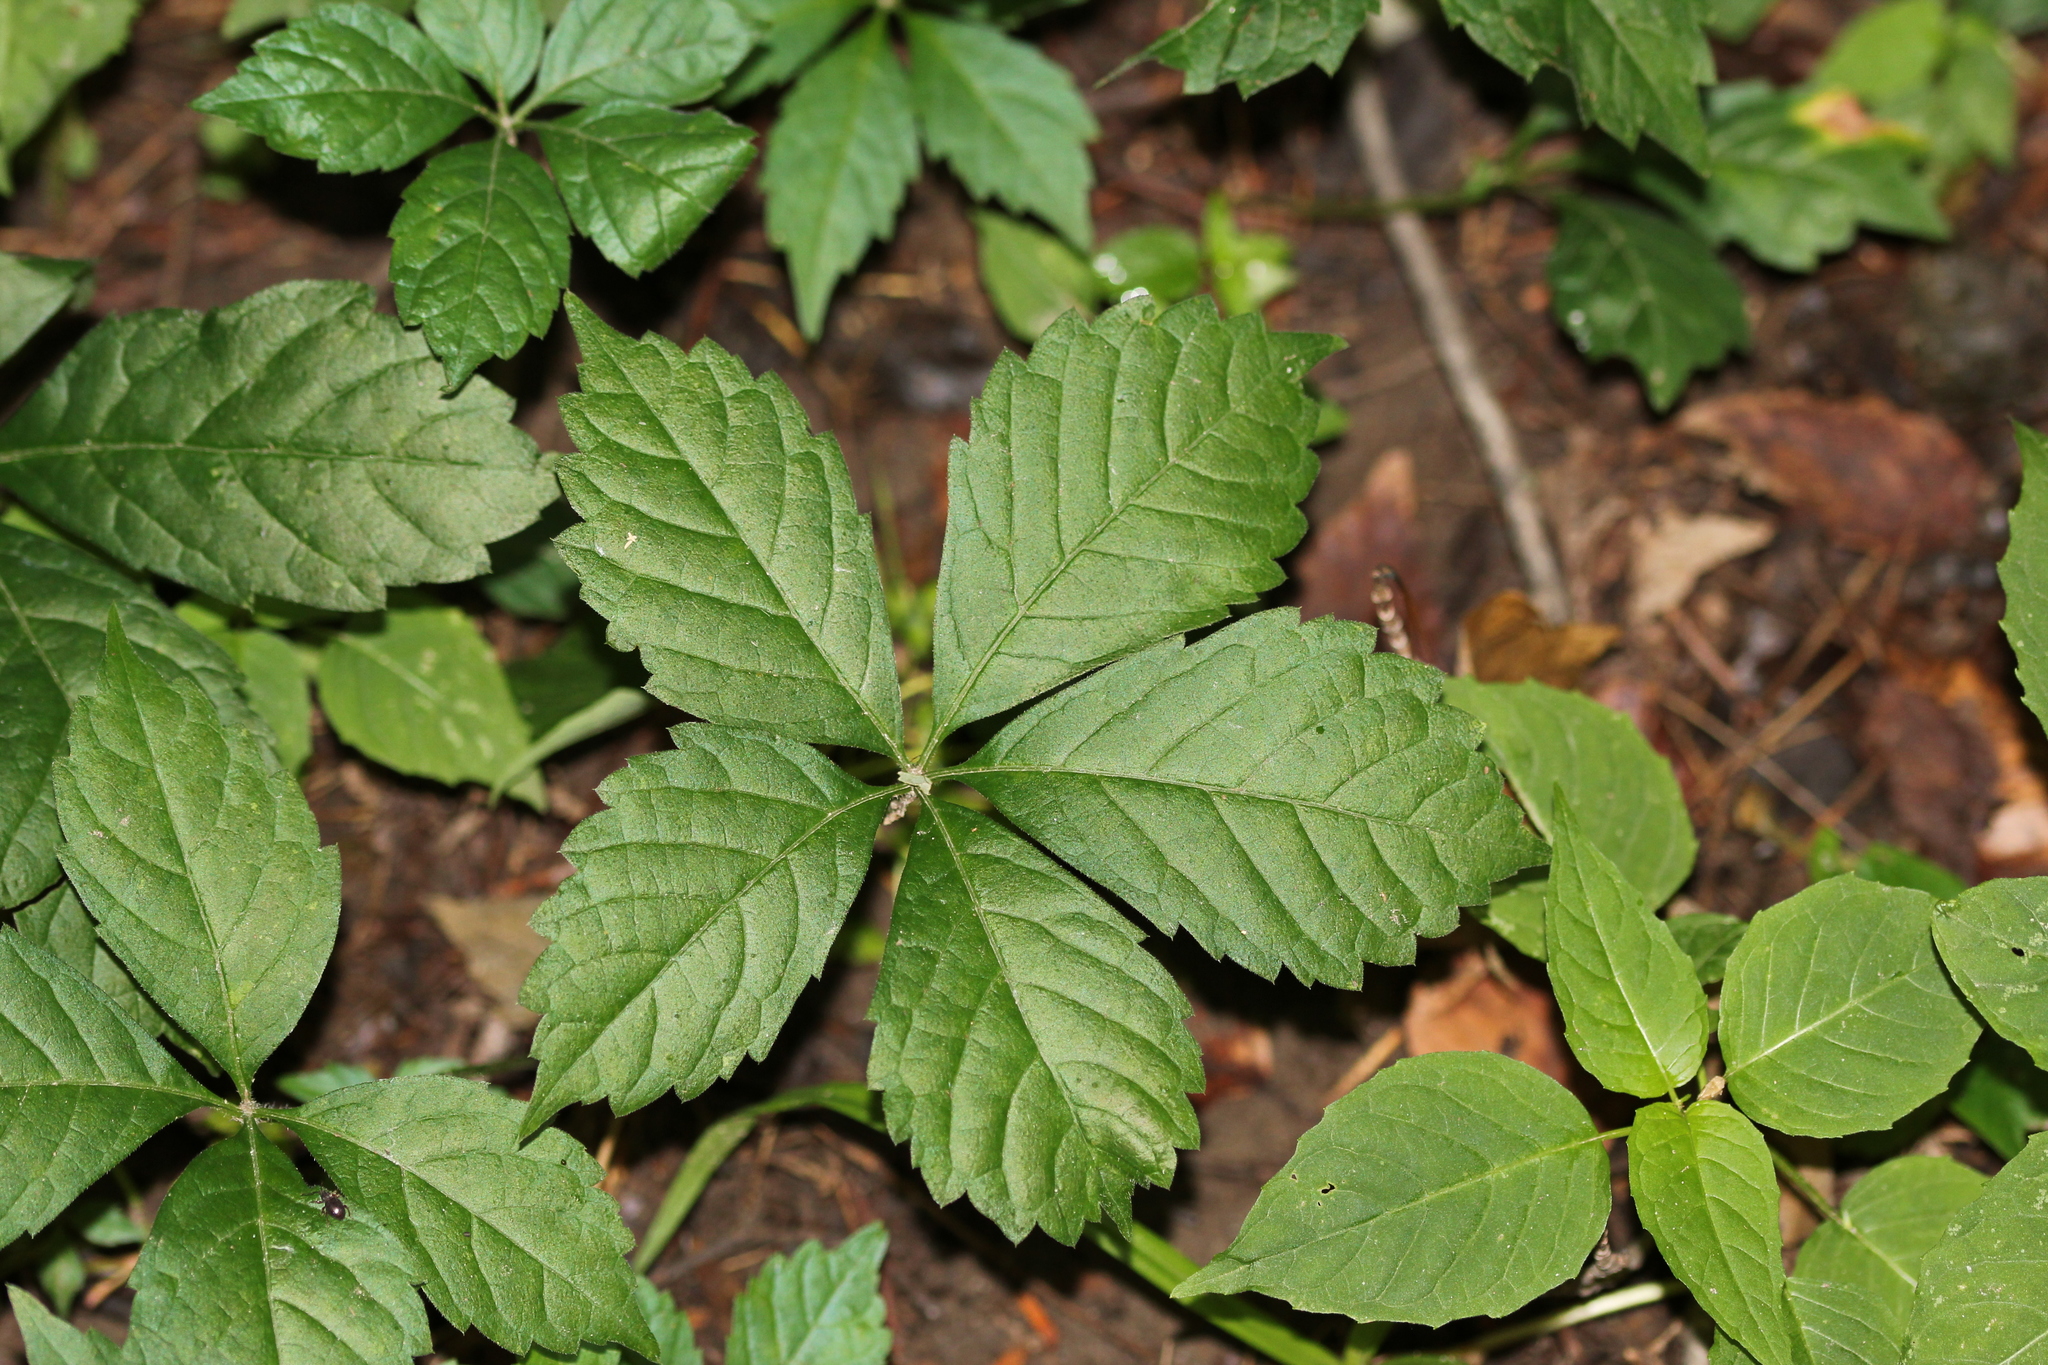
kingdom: Plantae
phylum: Tracheophyta
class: Magnoliopsida
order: Vitales
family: Vitaceae
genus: Parthenocissus
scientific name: Parthenocissus inserta
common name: False virginia-creeper
